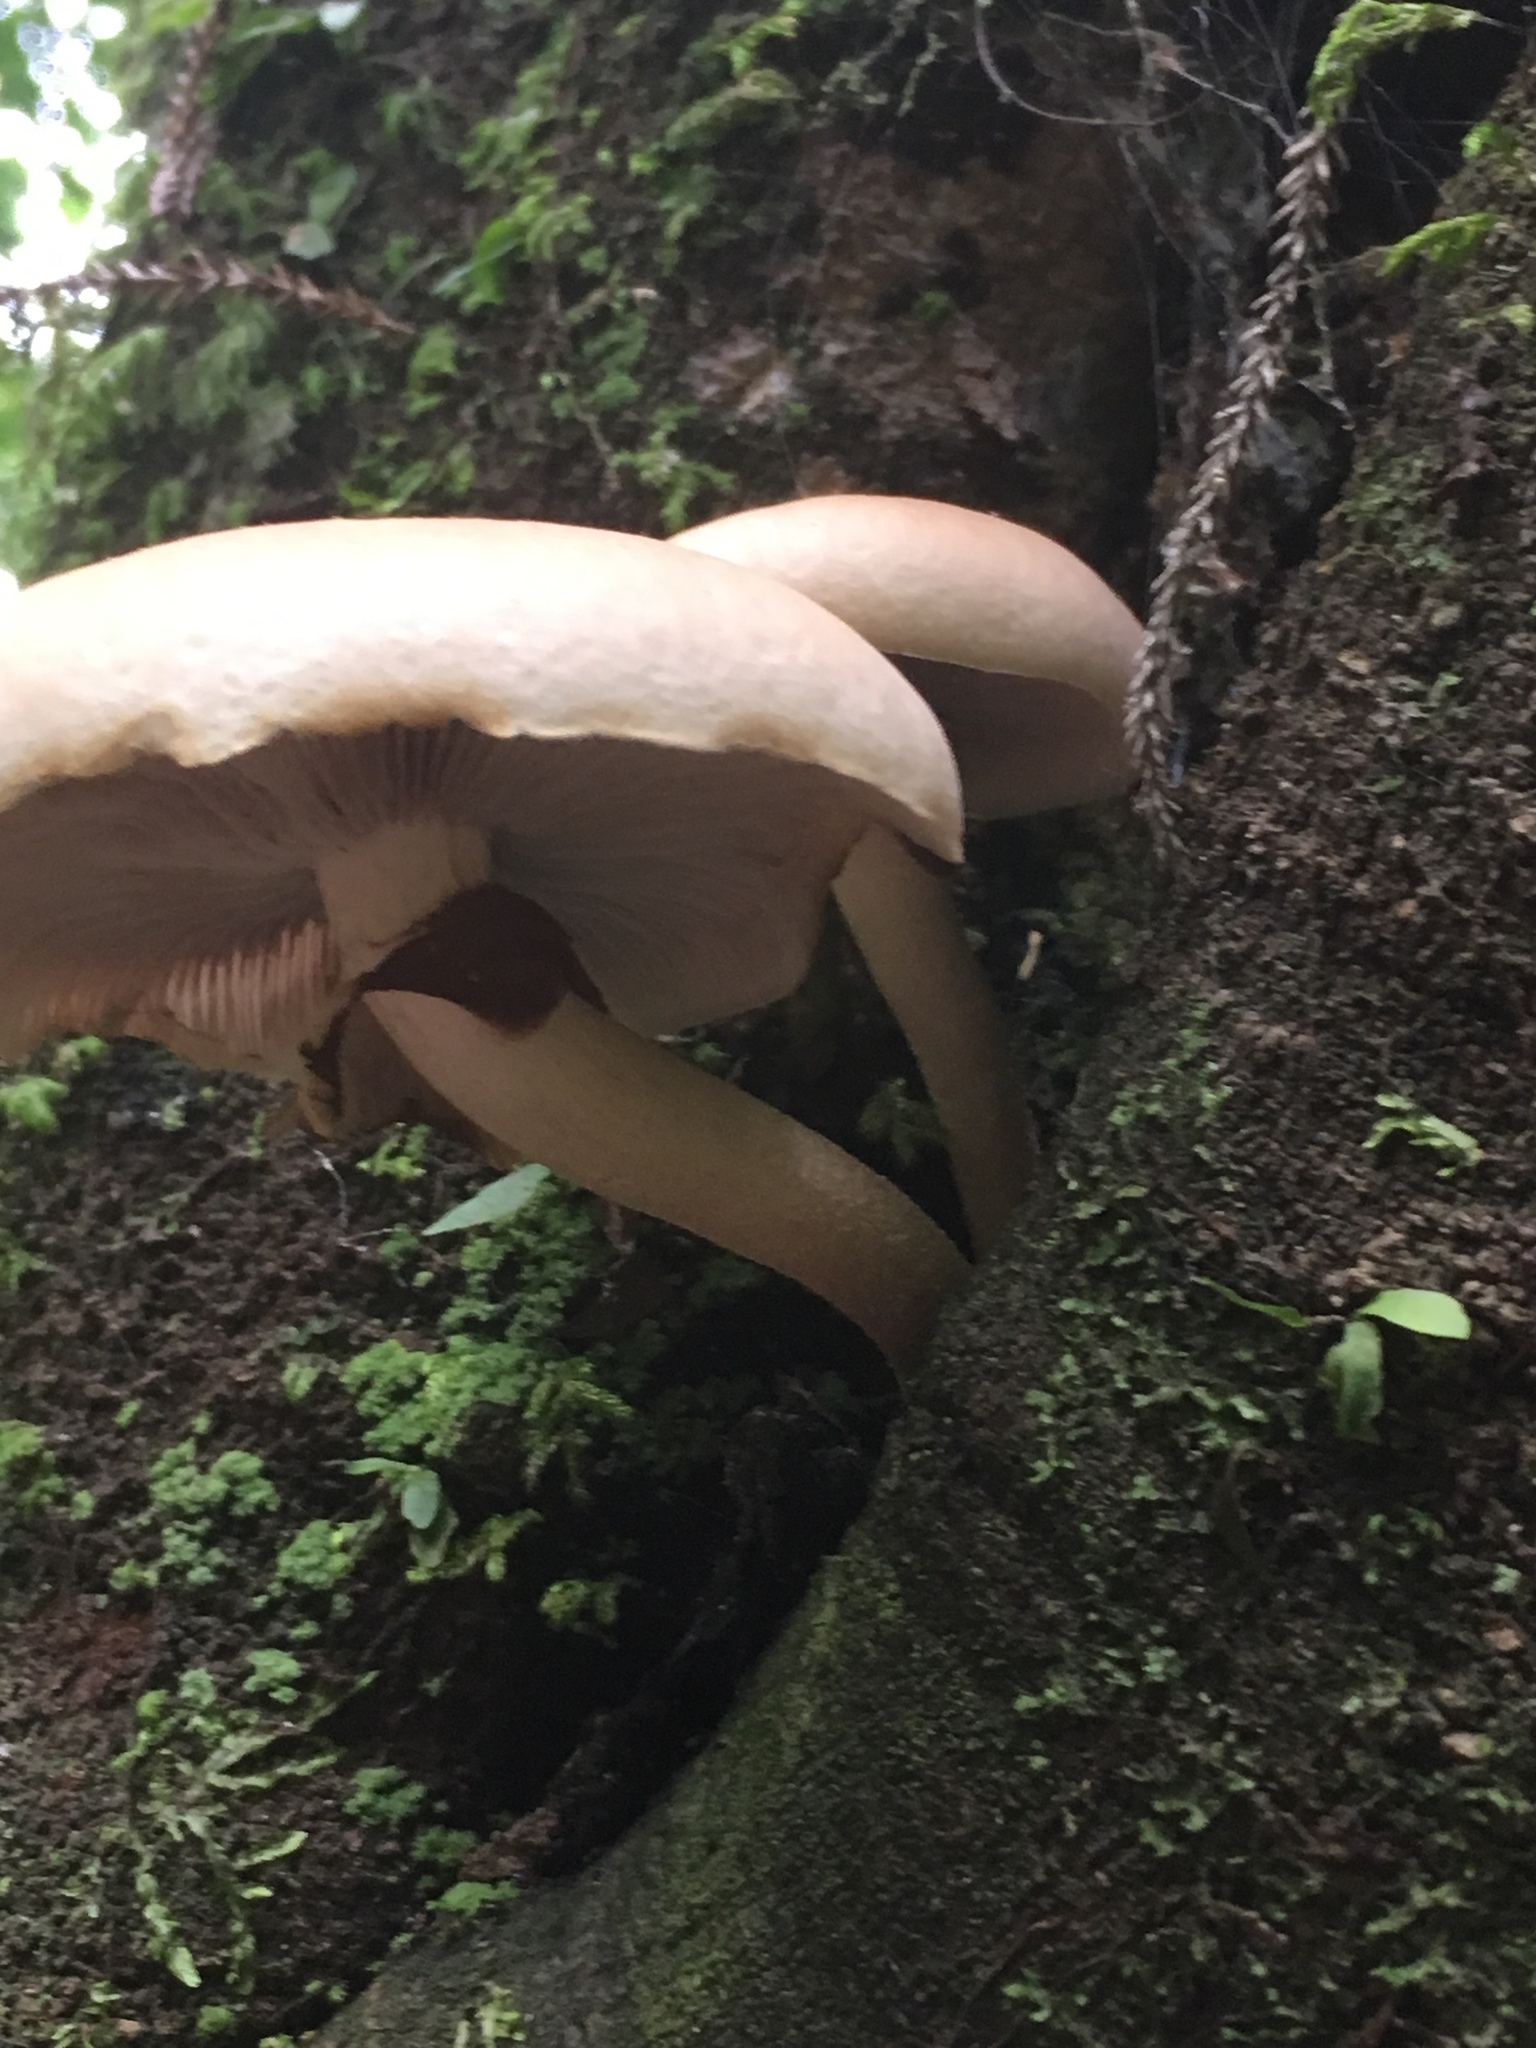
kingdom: Fungi
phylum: Basidiomycota
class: Agaricomycetes
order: Agaricales
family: Tubariaceae
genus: Cyclocybe
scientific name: Cyclocybe parasitica
